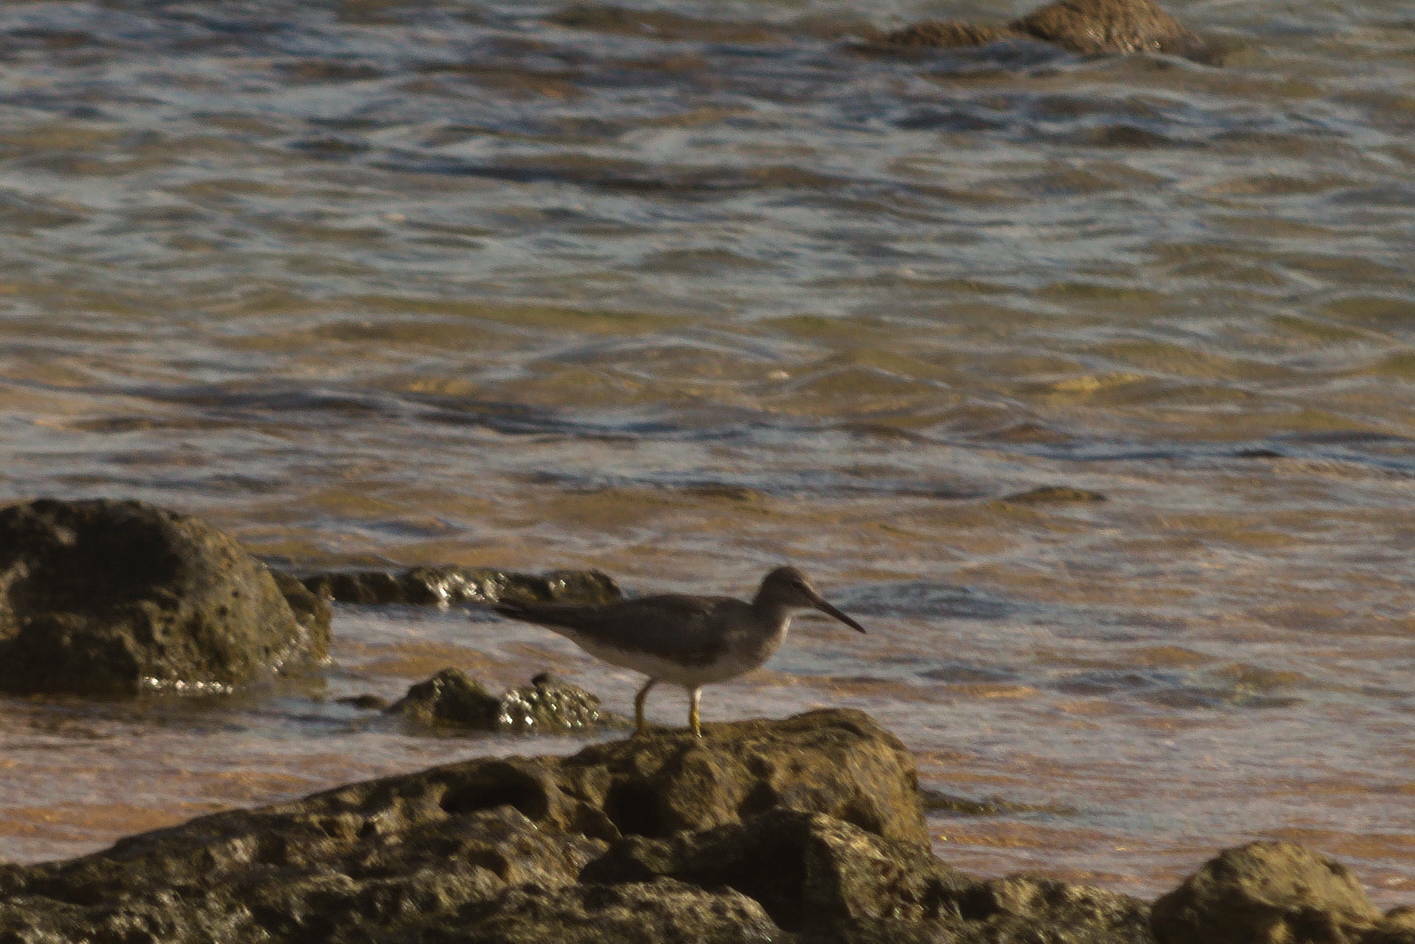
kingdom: Animalia
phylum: Chordata
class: Aves
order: Charadriiformes
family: Scolopacidae
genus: Tringa
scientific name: Tringa incana
